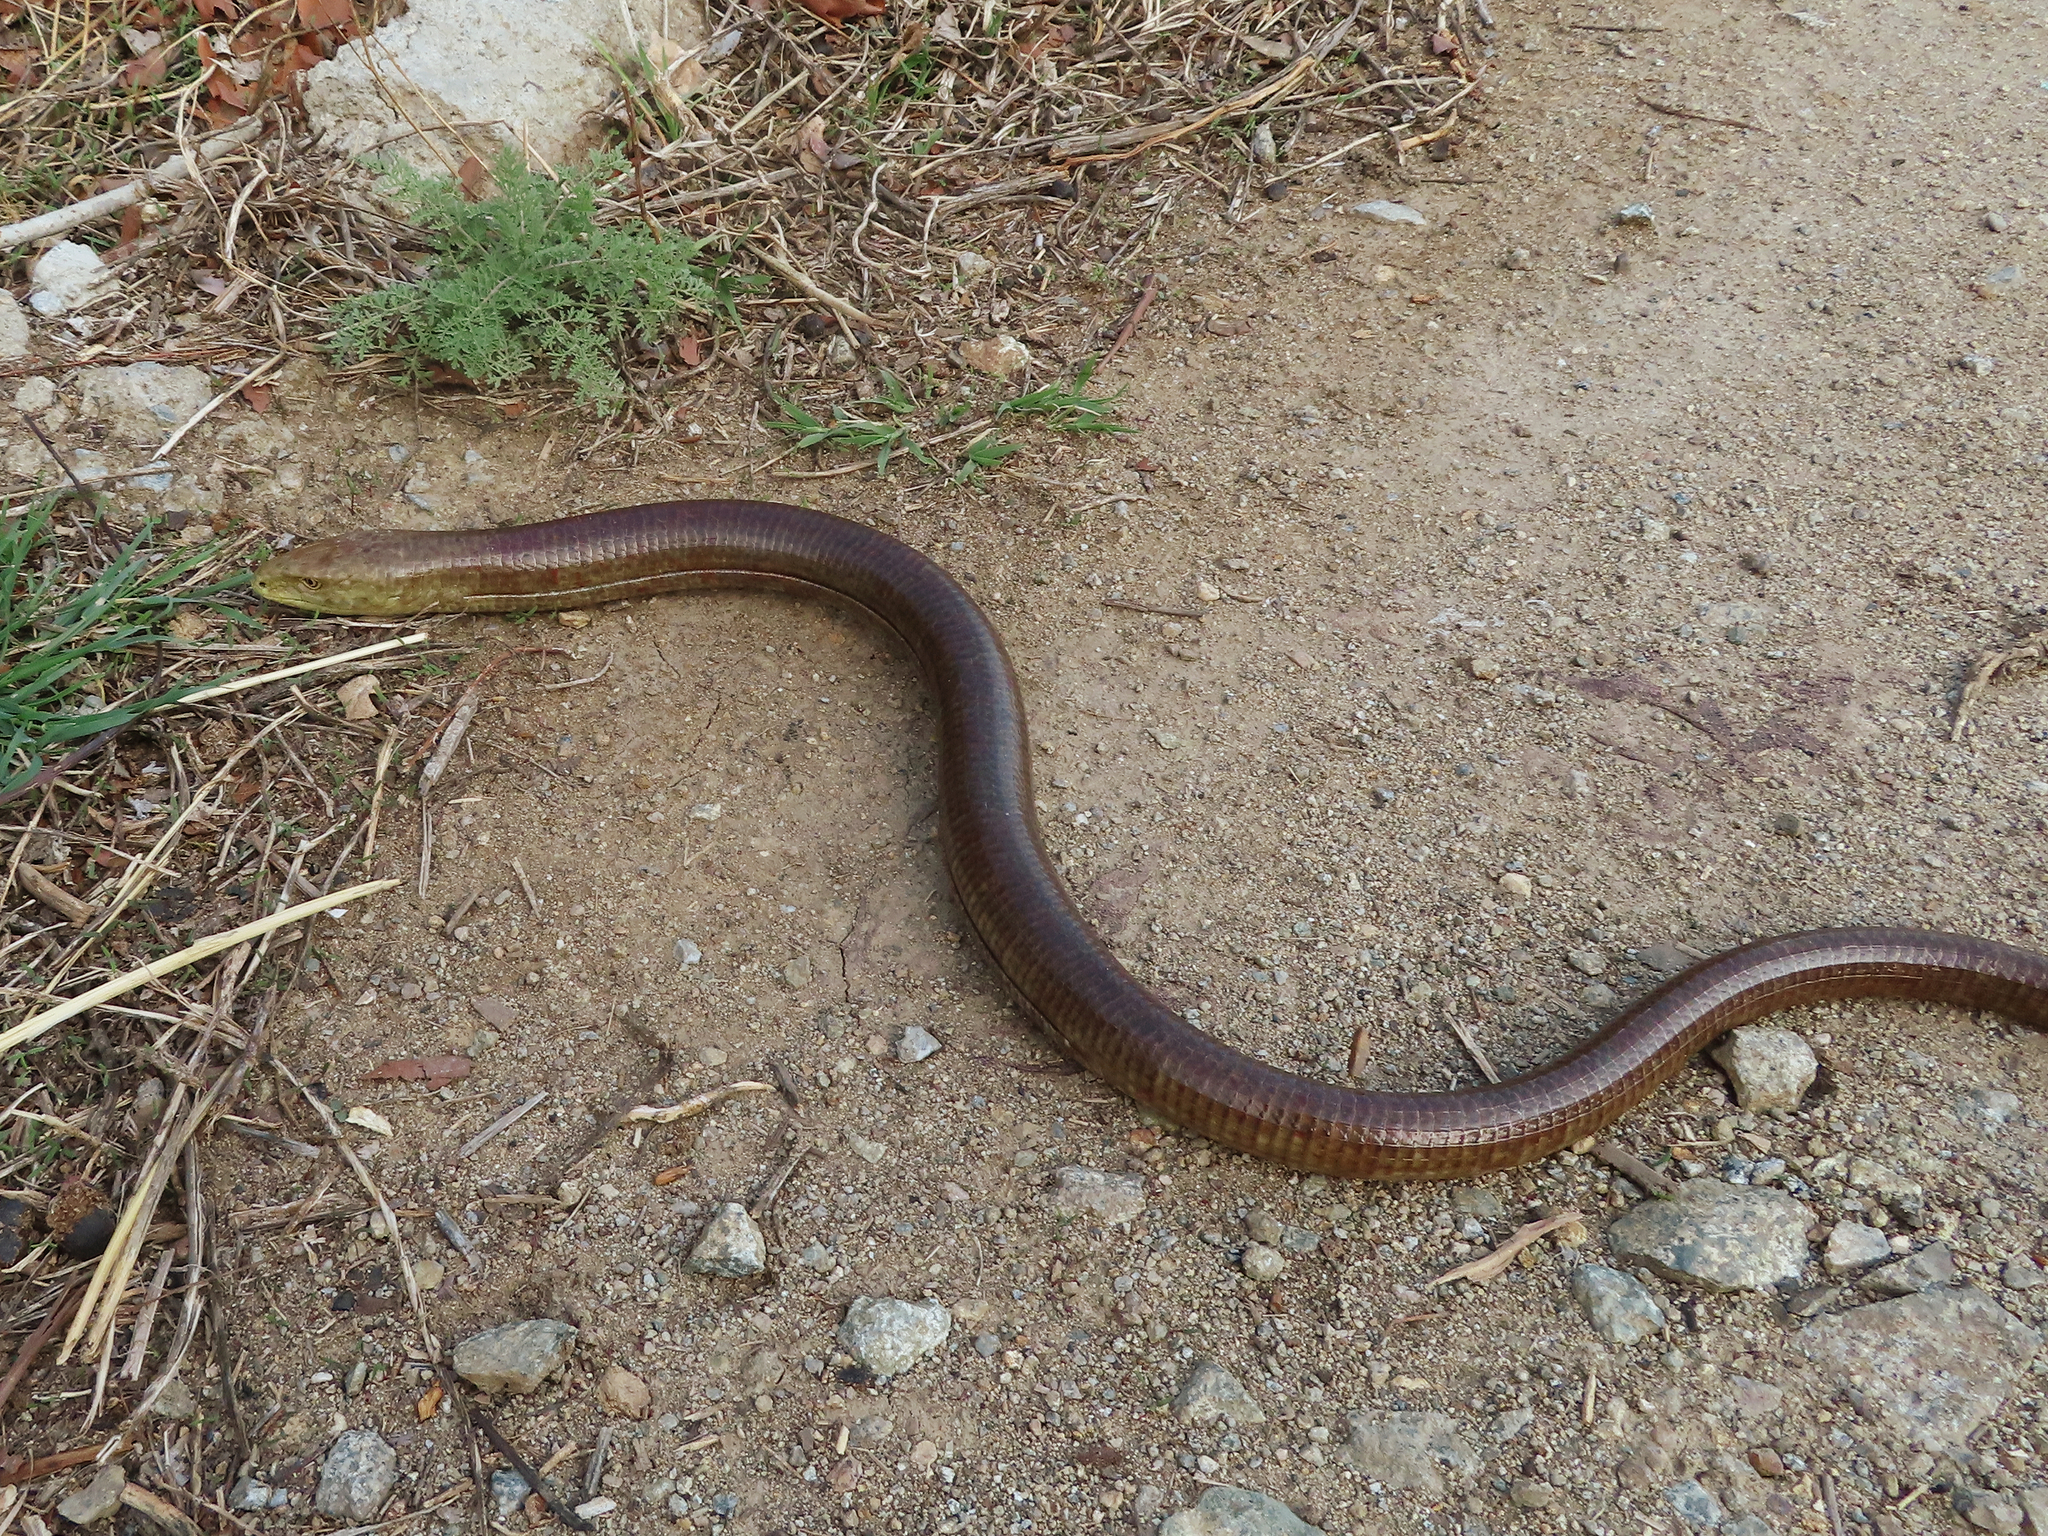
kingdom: Animalia
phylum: Chordata
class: Squamata
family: Anguidae
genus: Pseudopus
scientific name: Pseudopus apodus
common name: European glass lizard
